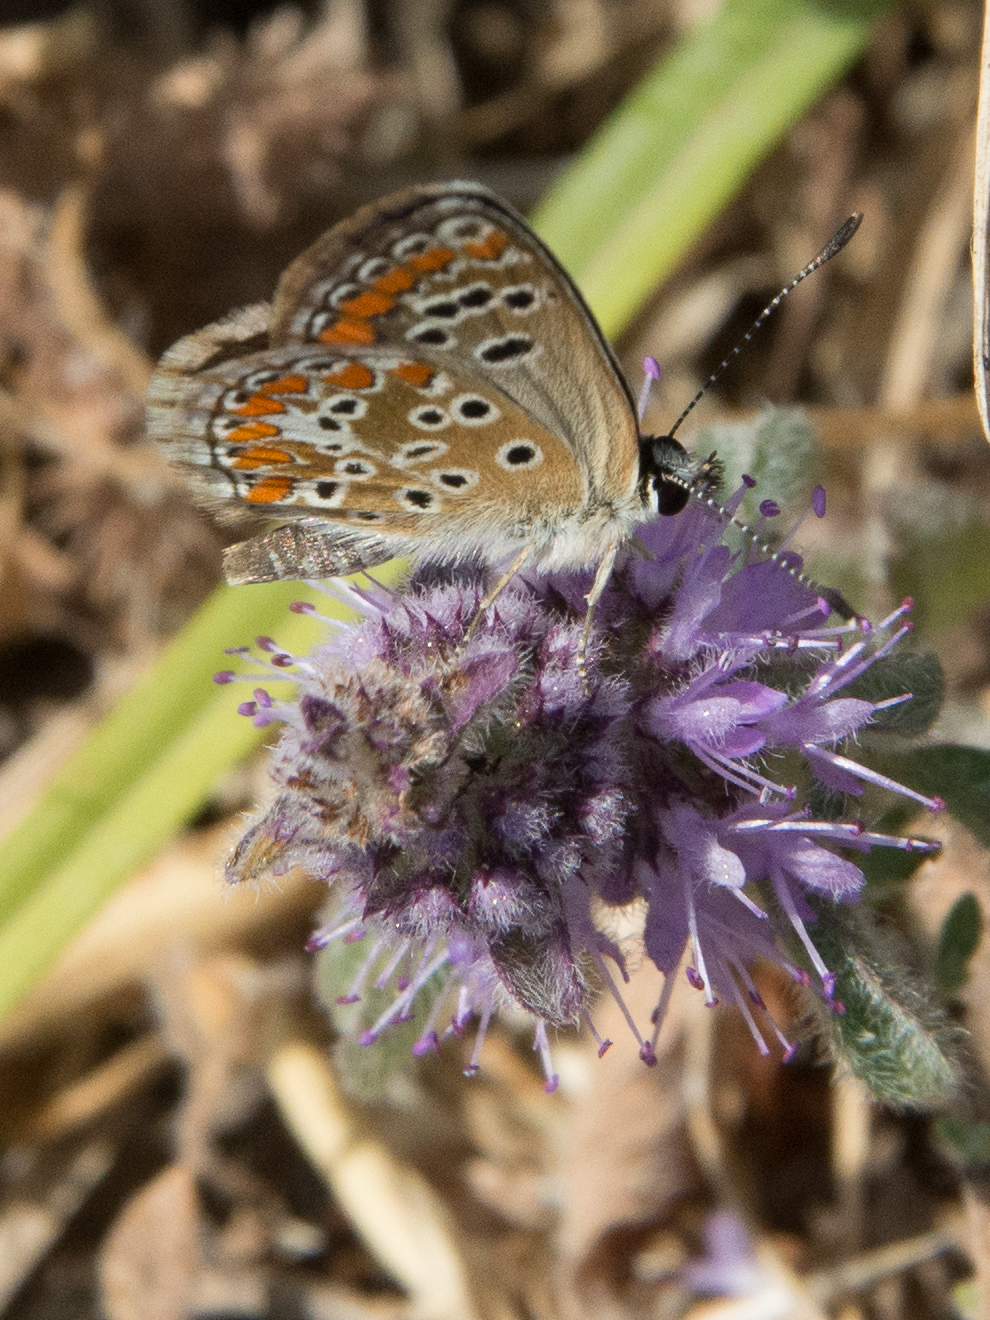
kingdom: Animalia
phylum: Arthropoda
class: Insecta
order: Lepidoptera
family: Lycaenidae
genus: Aricia
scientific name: Aricia agestis
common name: Brown argus
